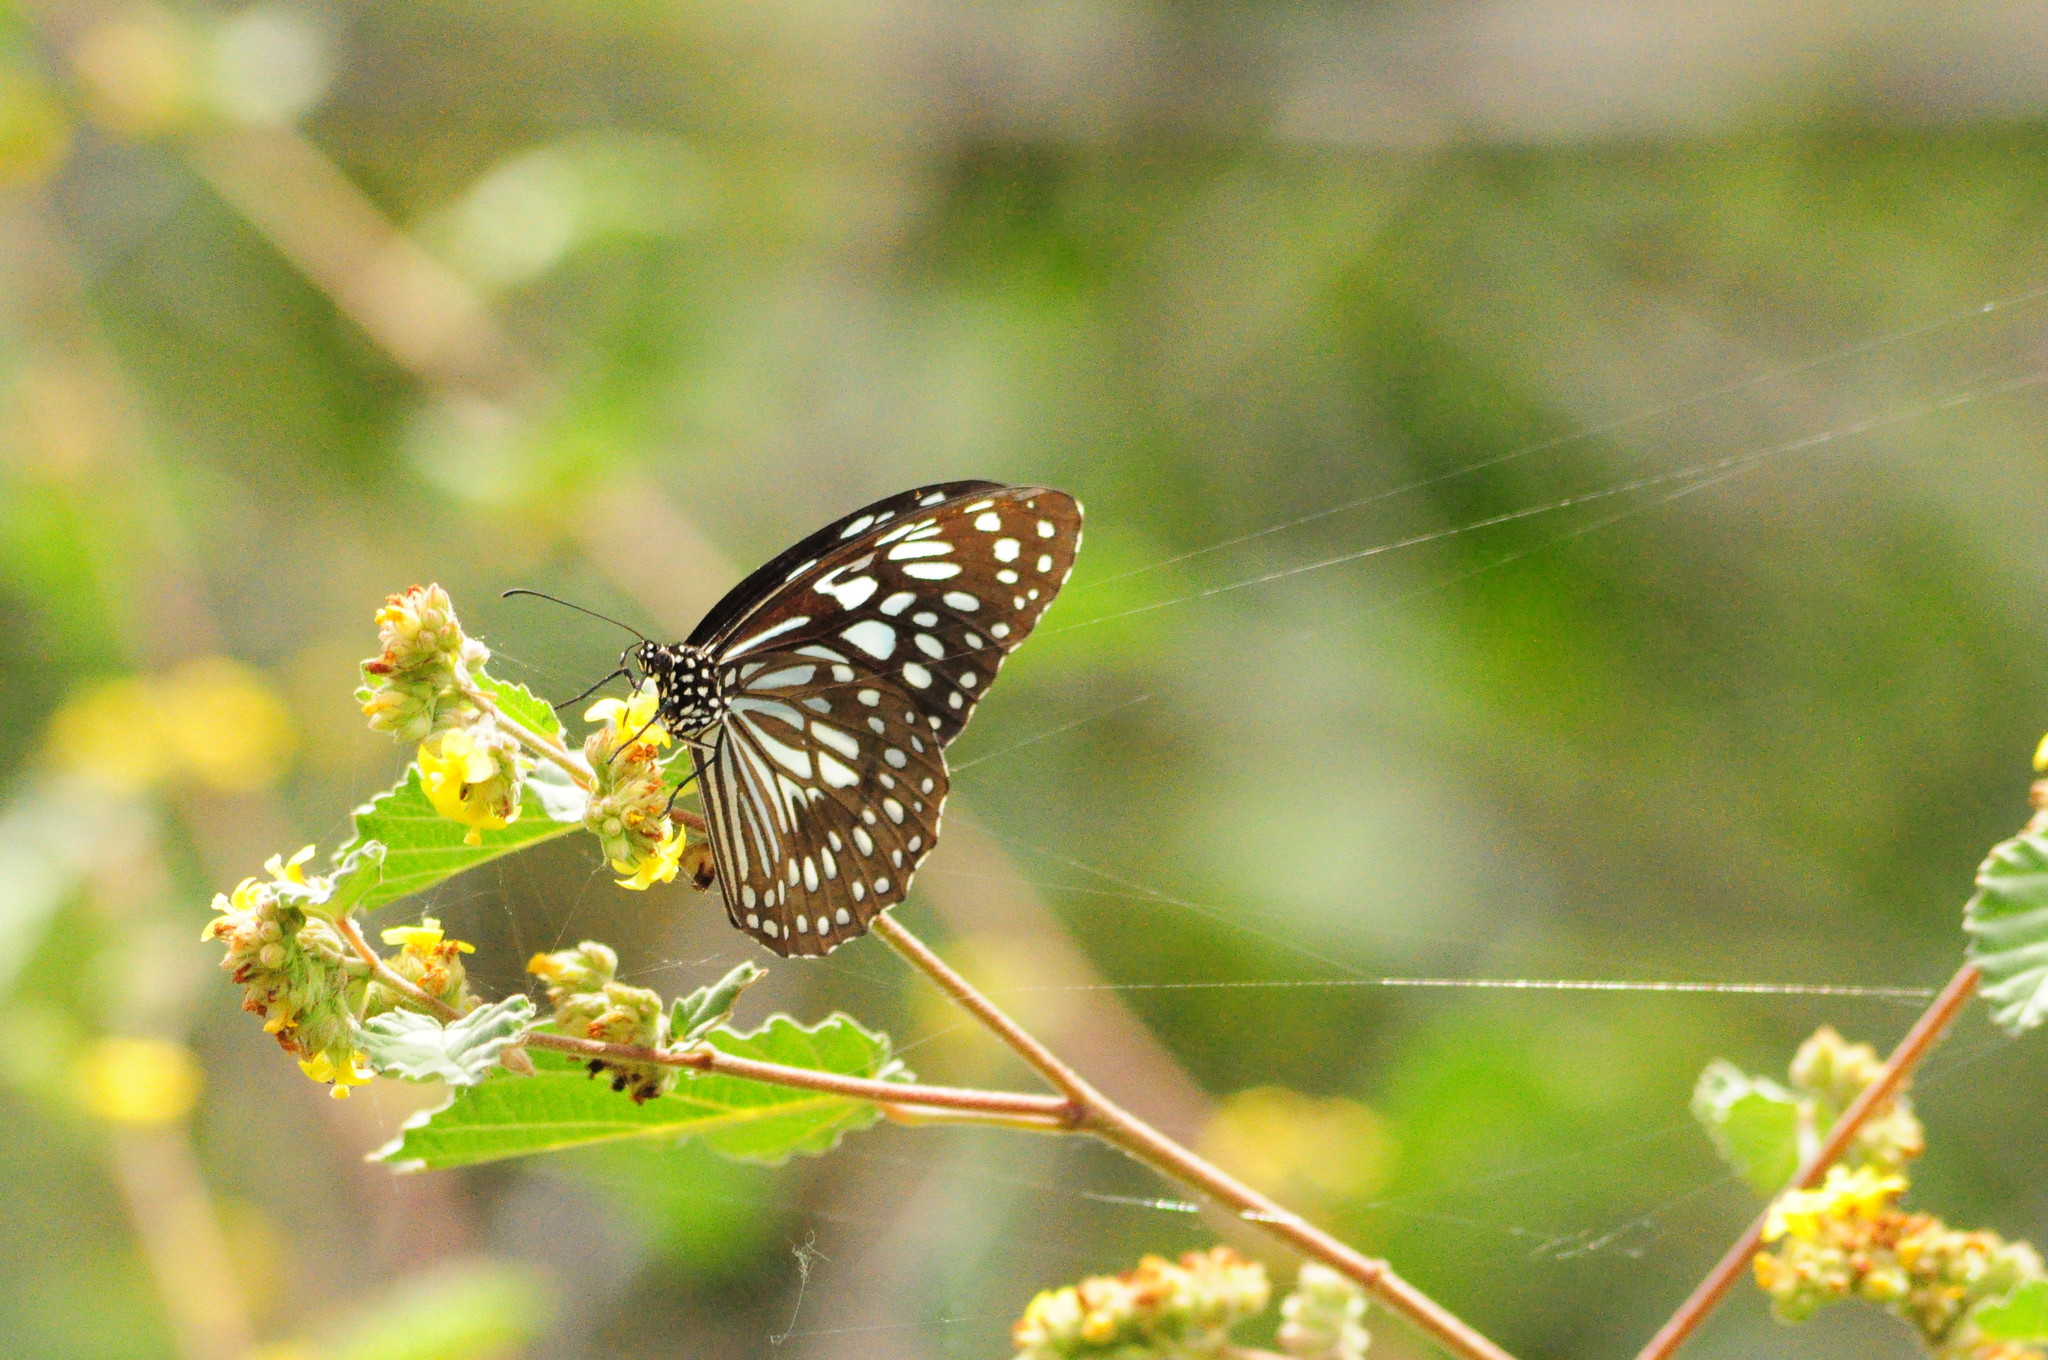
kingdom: Animalia
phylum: Arthropoda
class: Insecta
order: Lepidoptera
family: Nymphalidae
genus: Tirumala
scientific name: Tirumala septentrionis
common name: Dark blue tiger butterfly
